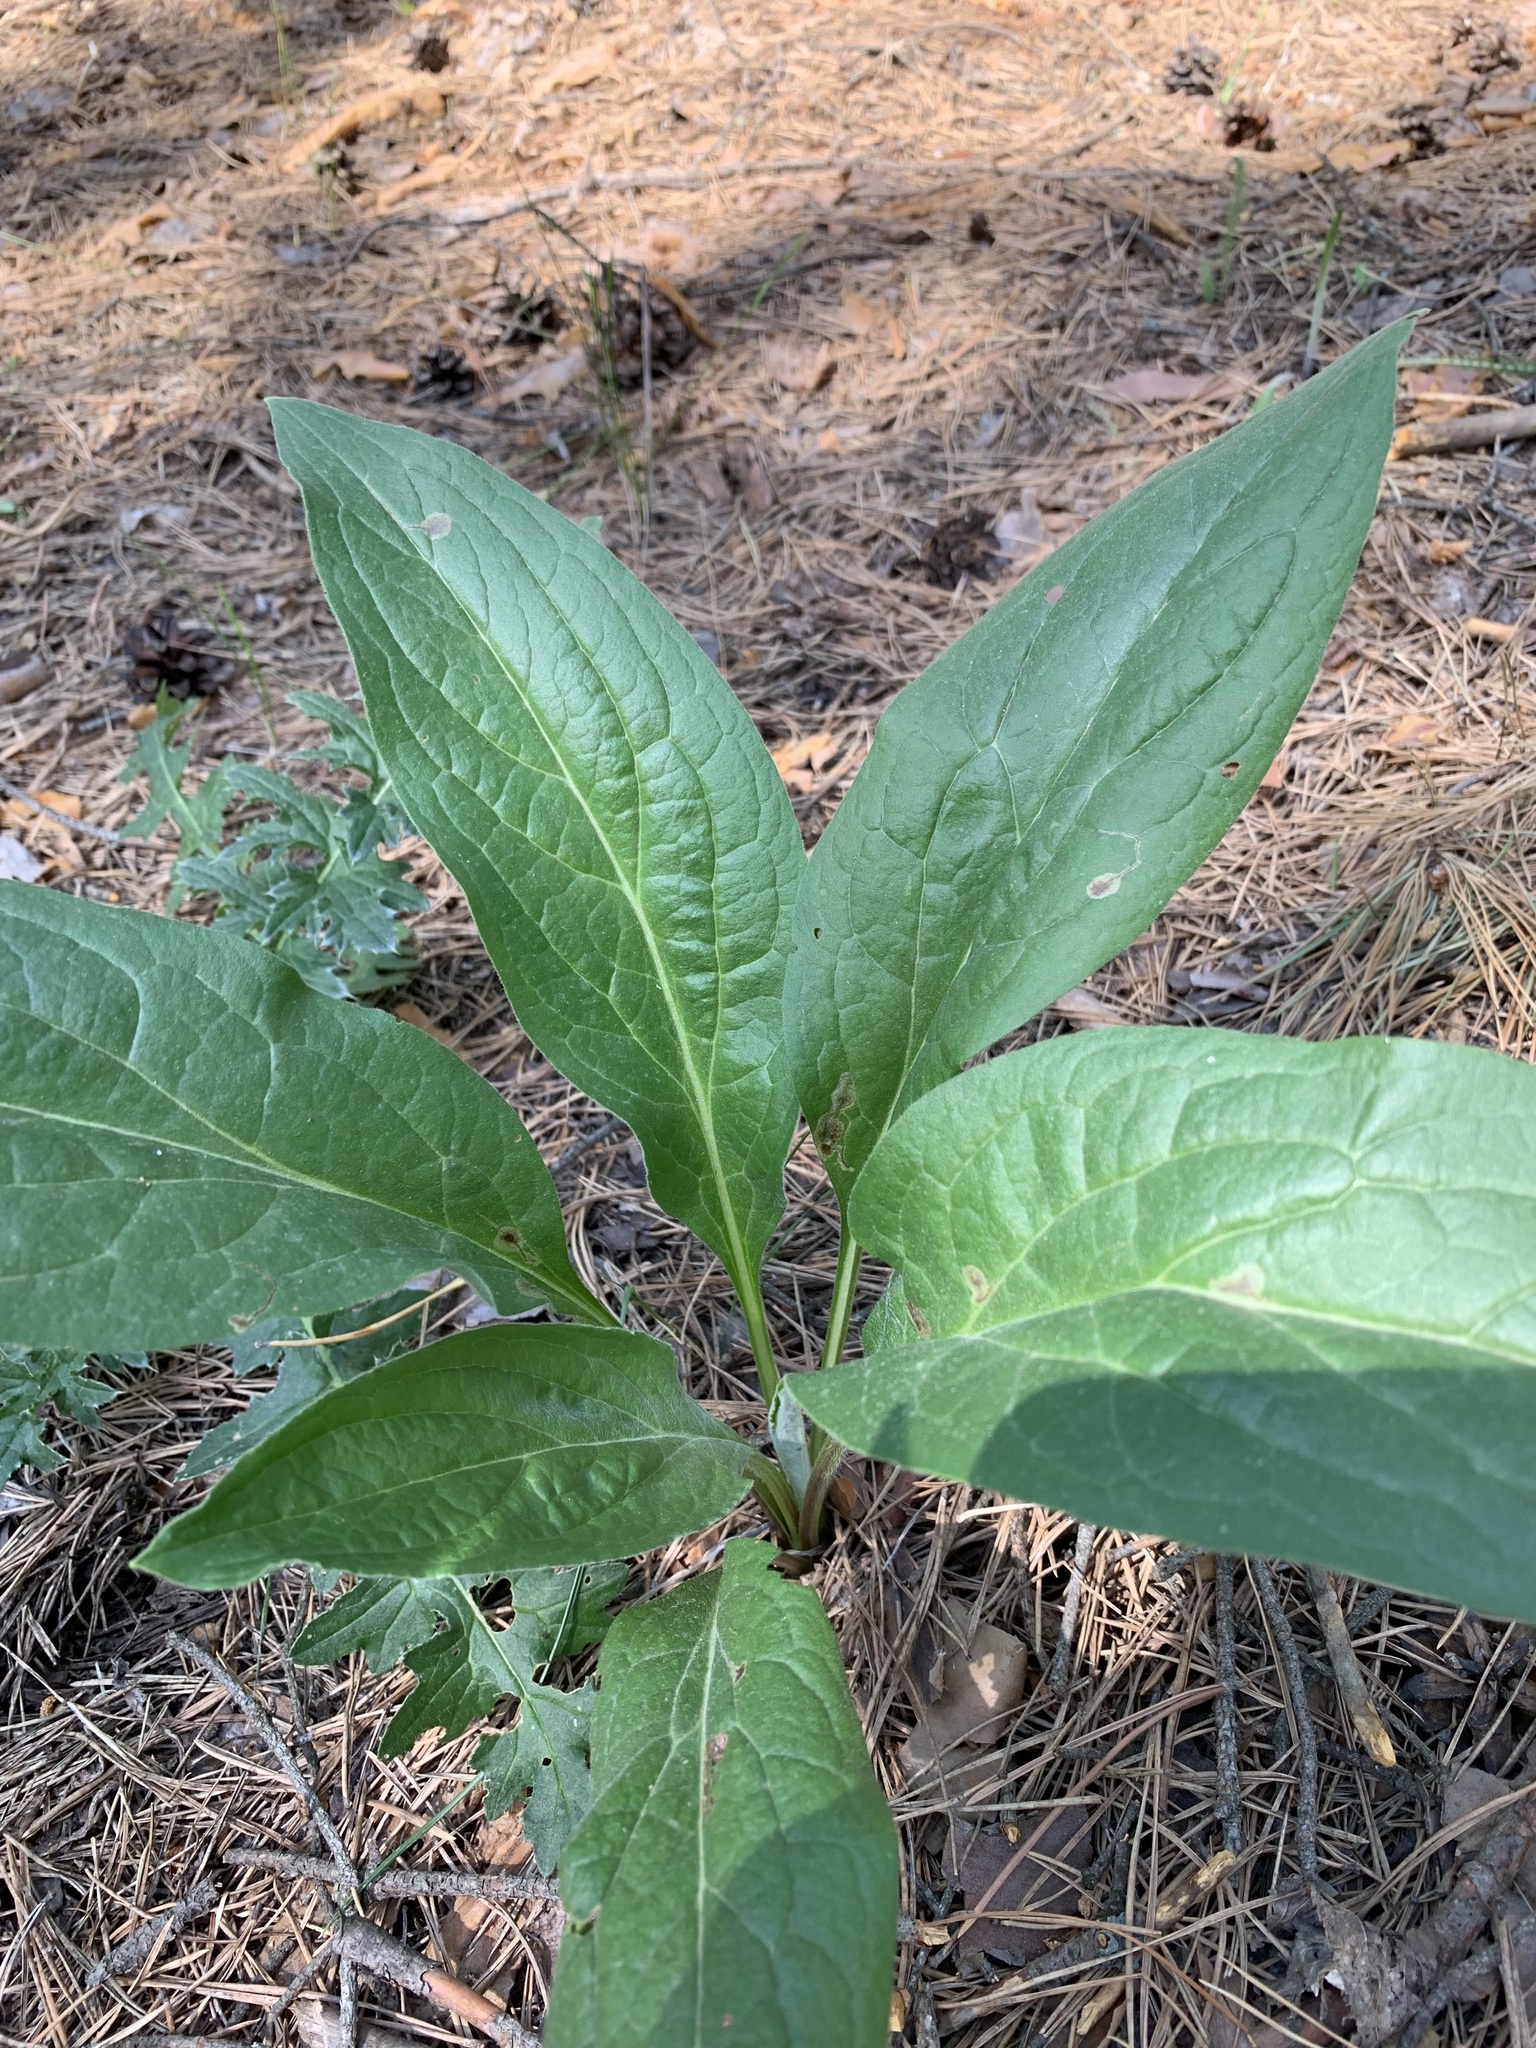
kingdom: Plantae
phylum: Tracheophyta
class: Magnoliopsida
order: Boraginales
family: Boraginaceae
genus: Cynoglossum
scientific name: Cynoglossum officinale
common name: Hound's-tongue
